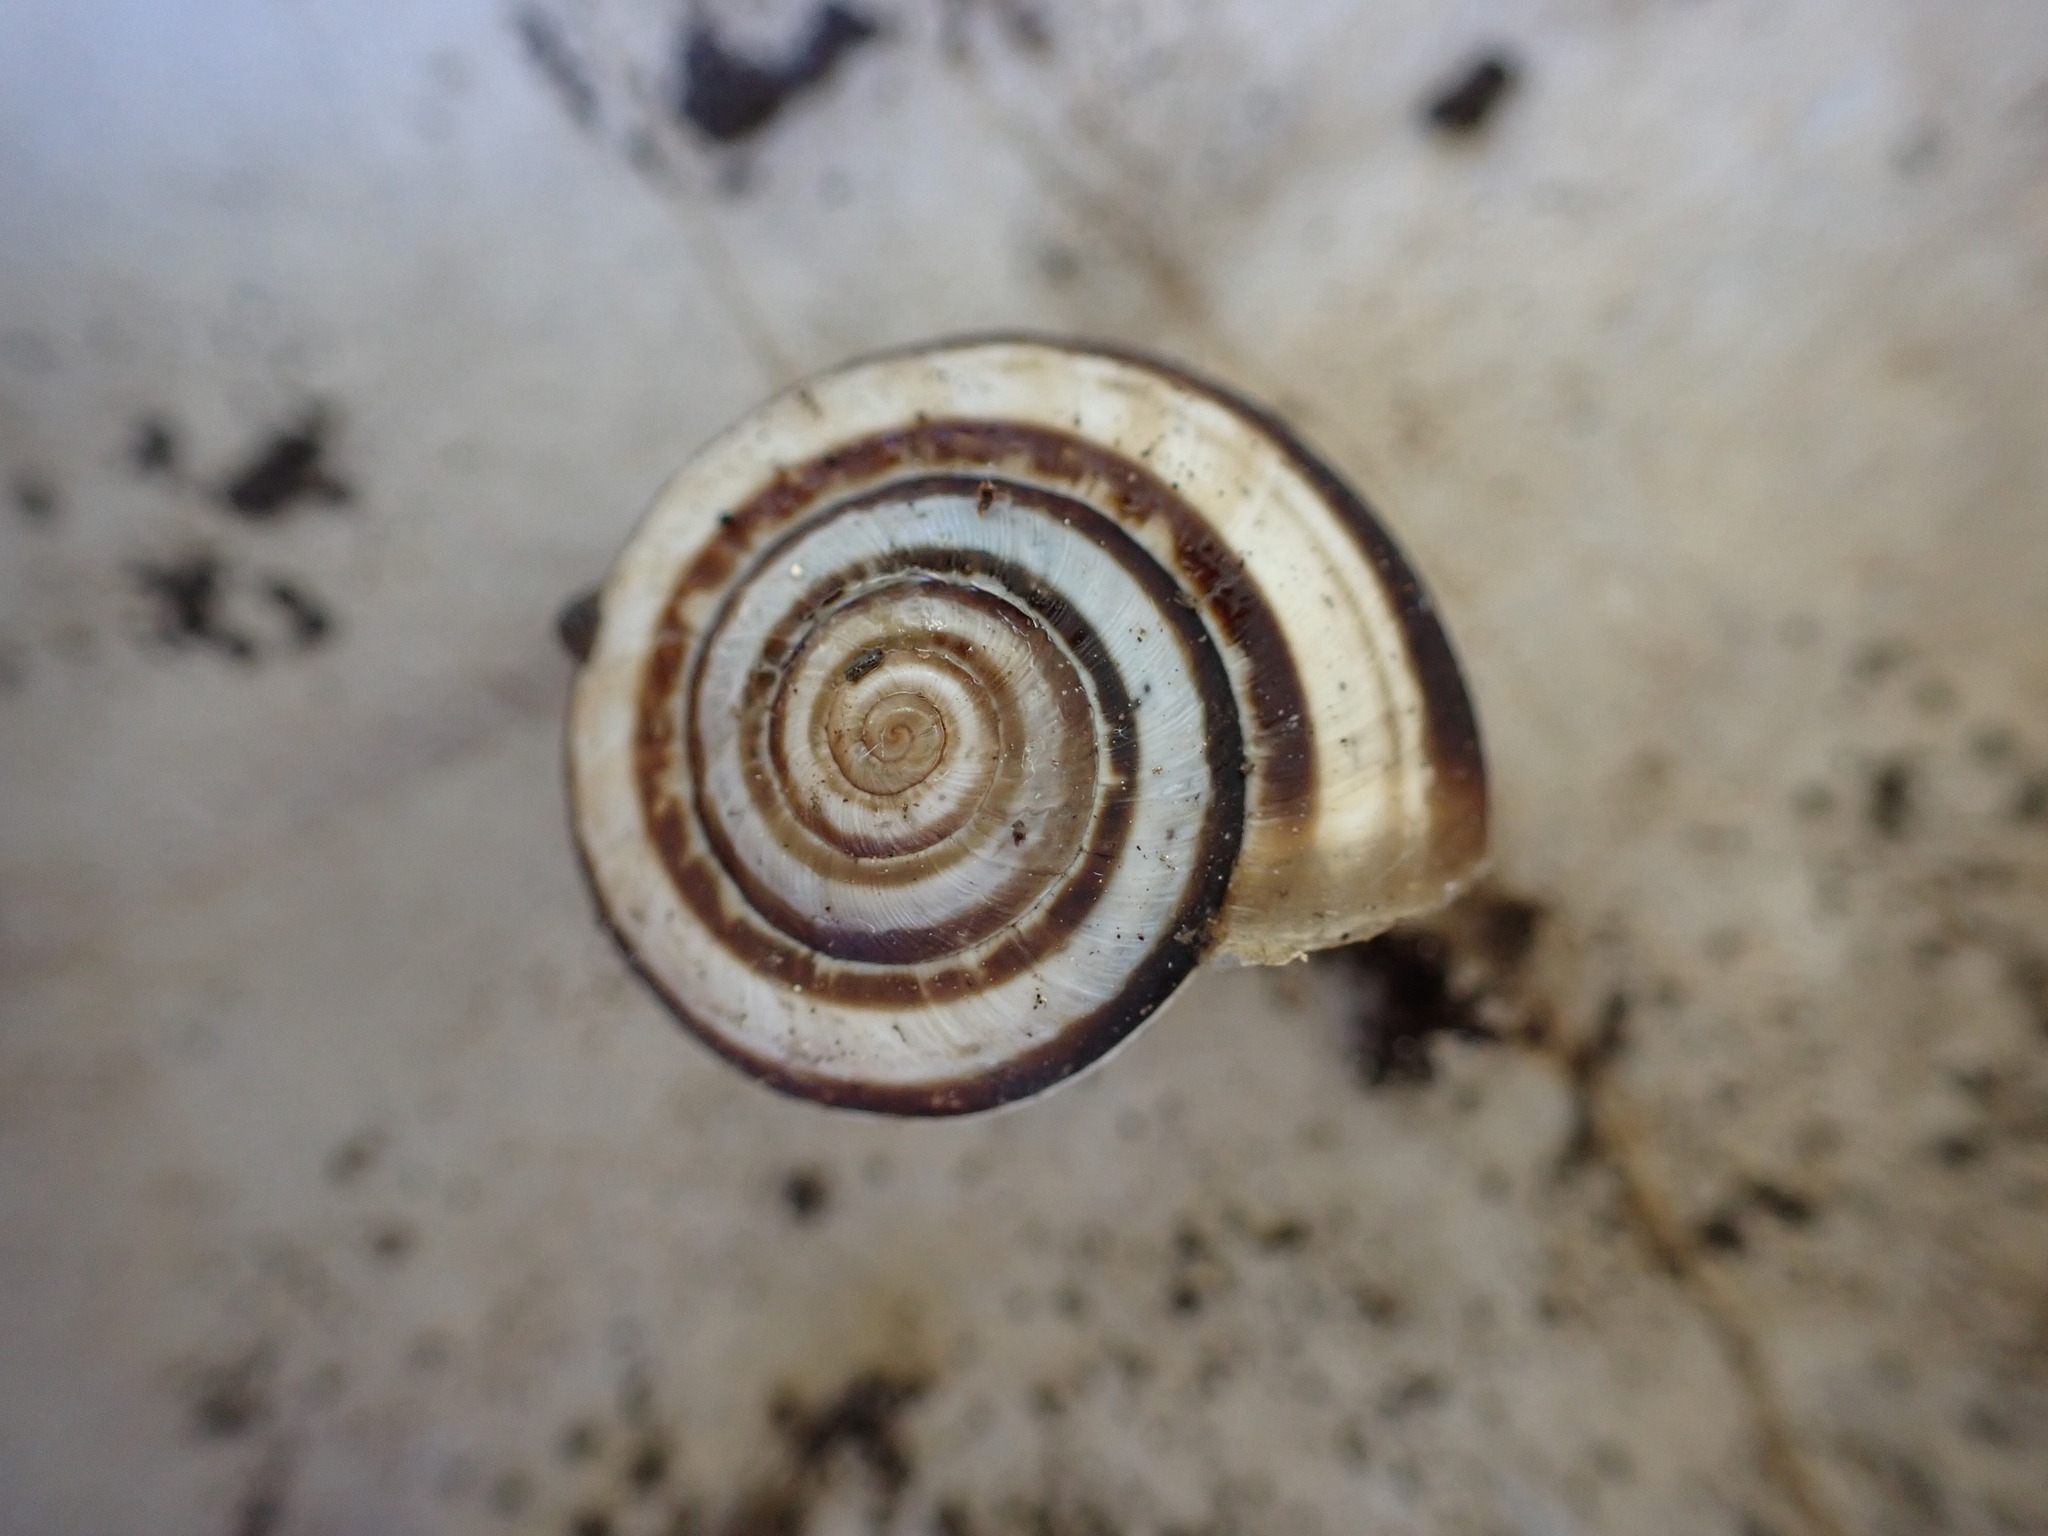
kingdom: Animalia
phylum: Mollusca
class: Gastropoda
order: Stylommatophora
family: Geomitridae
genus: Xerosecta
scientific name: Xerosecta cespitum
